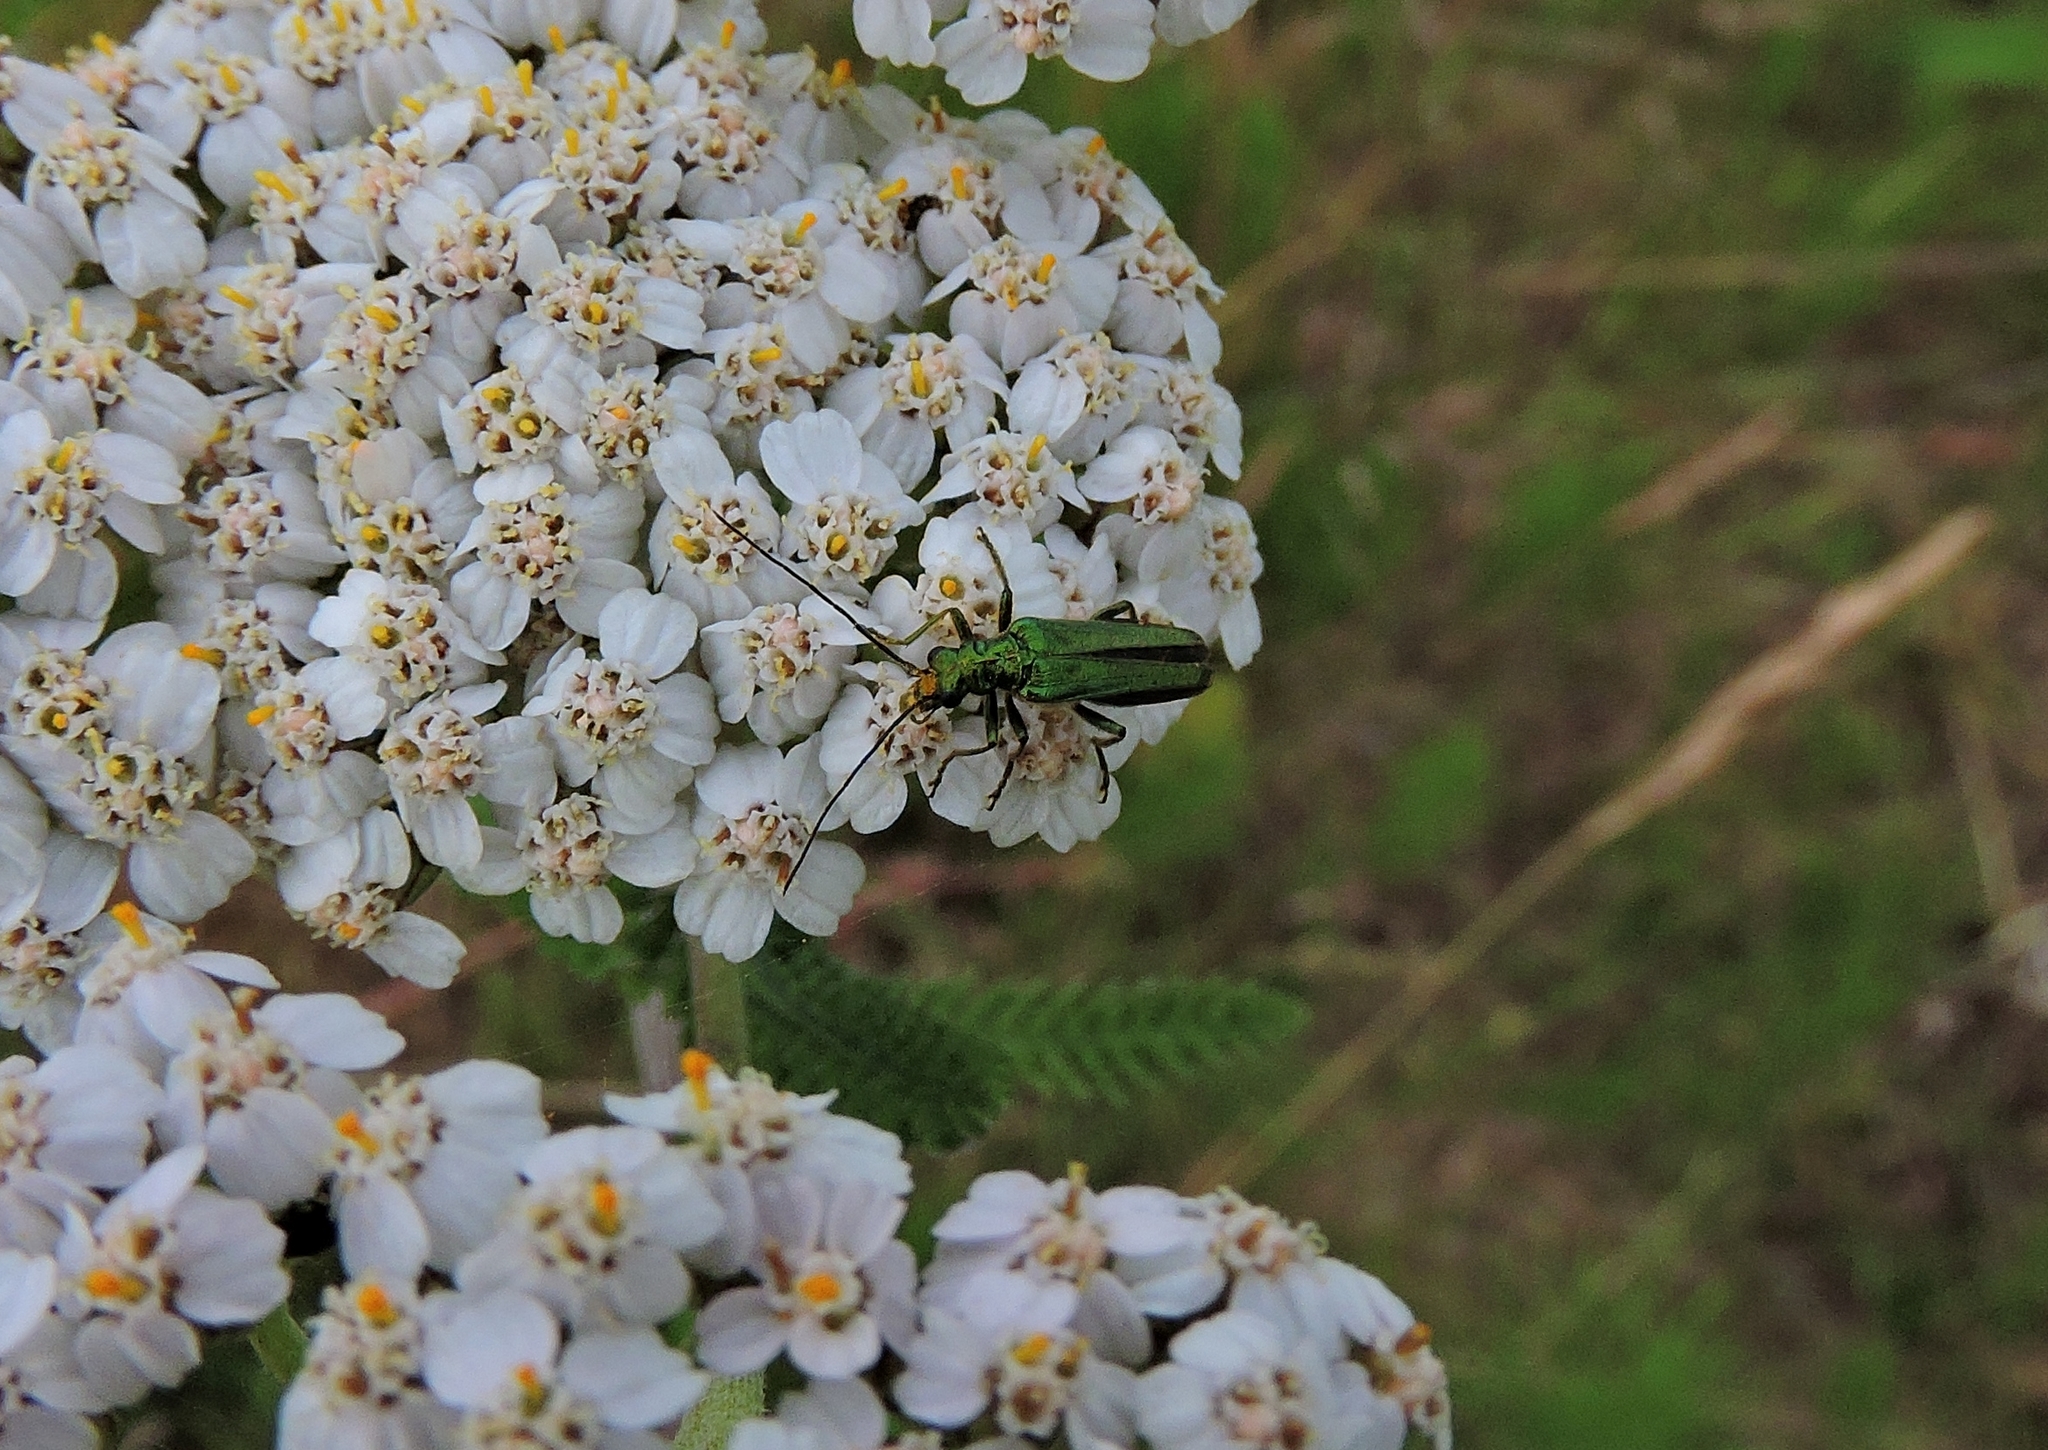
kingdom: Animalia
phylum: Arthropoda
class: Insecta
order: Coleoptera
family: Oedemeridae
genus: Oedemera
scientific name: Oedemera nobilis
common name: Swollen-thighed beetle
